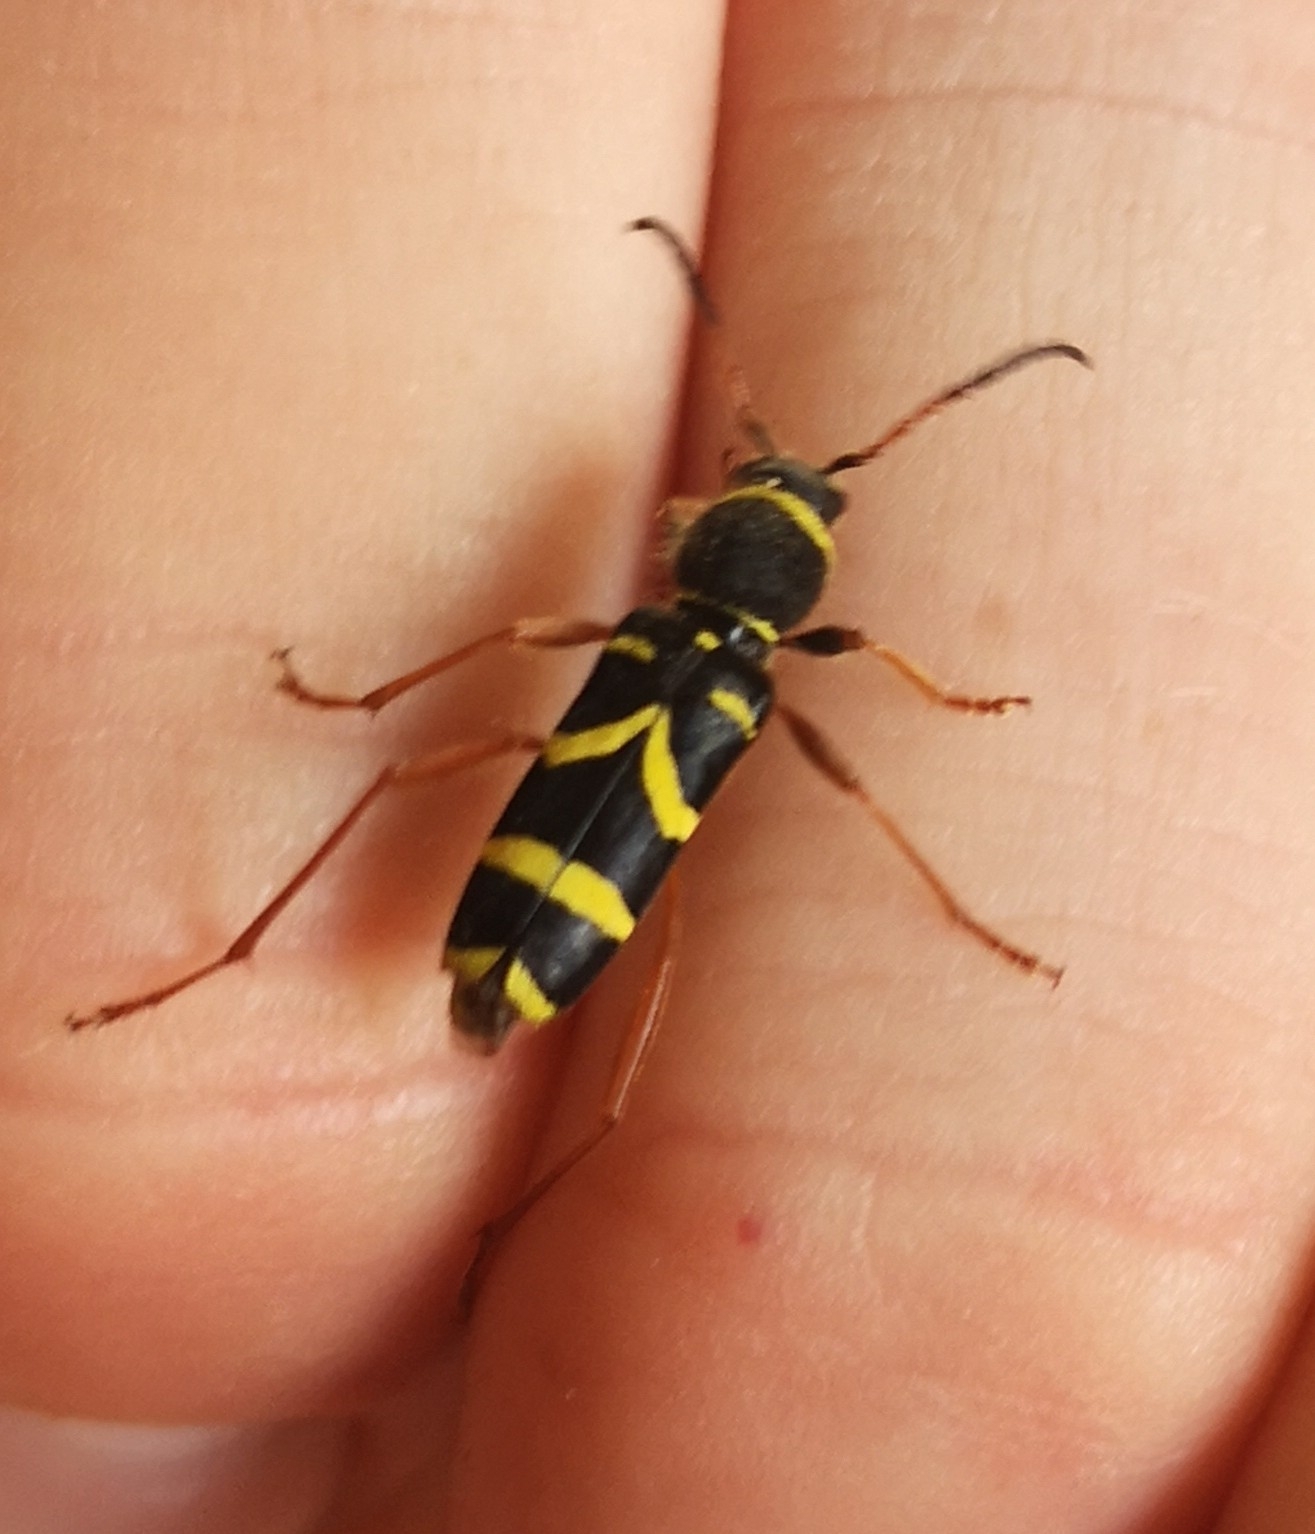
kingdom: Animalia
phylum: Arthropoda
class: Insecta
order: Coleoptera
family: Cerambycidae
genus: Clytus
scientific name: Clytus arietis
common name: Wasp beetle
